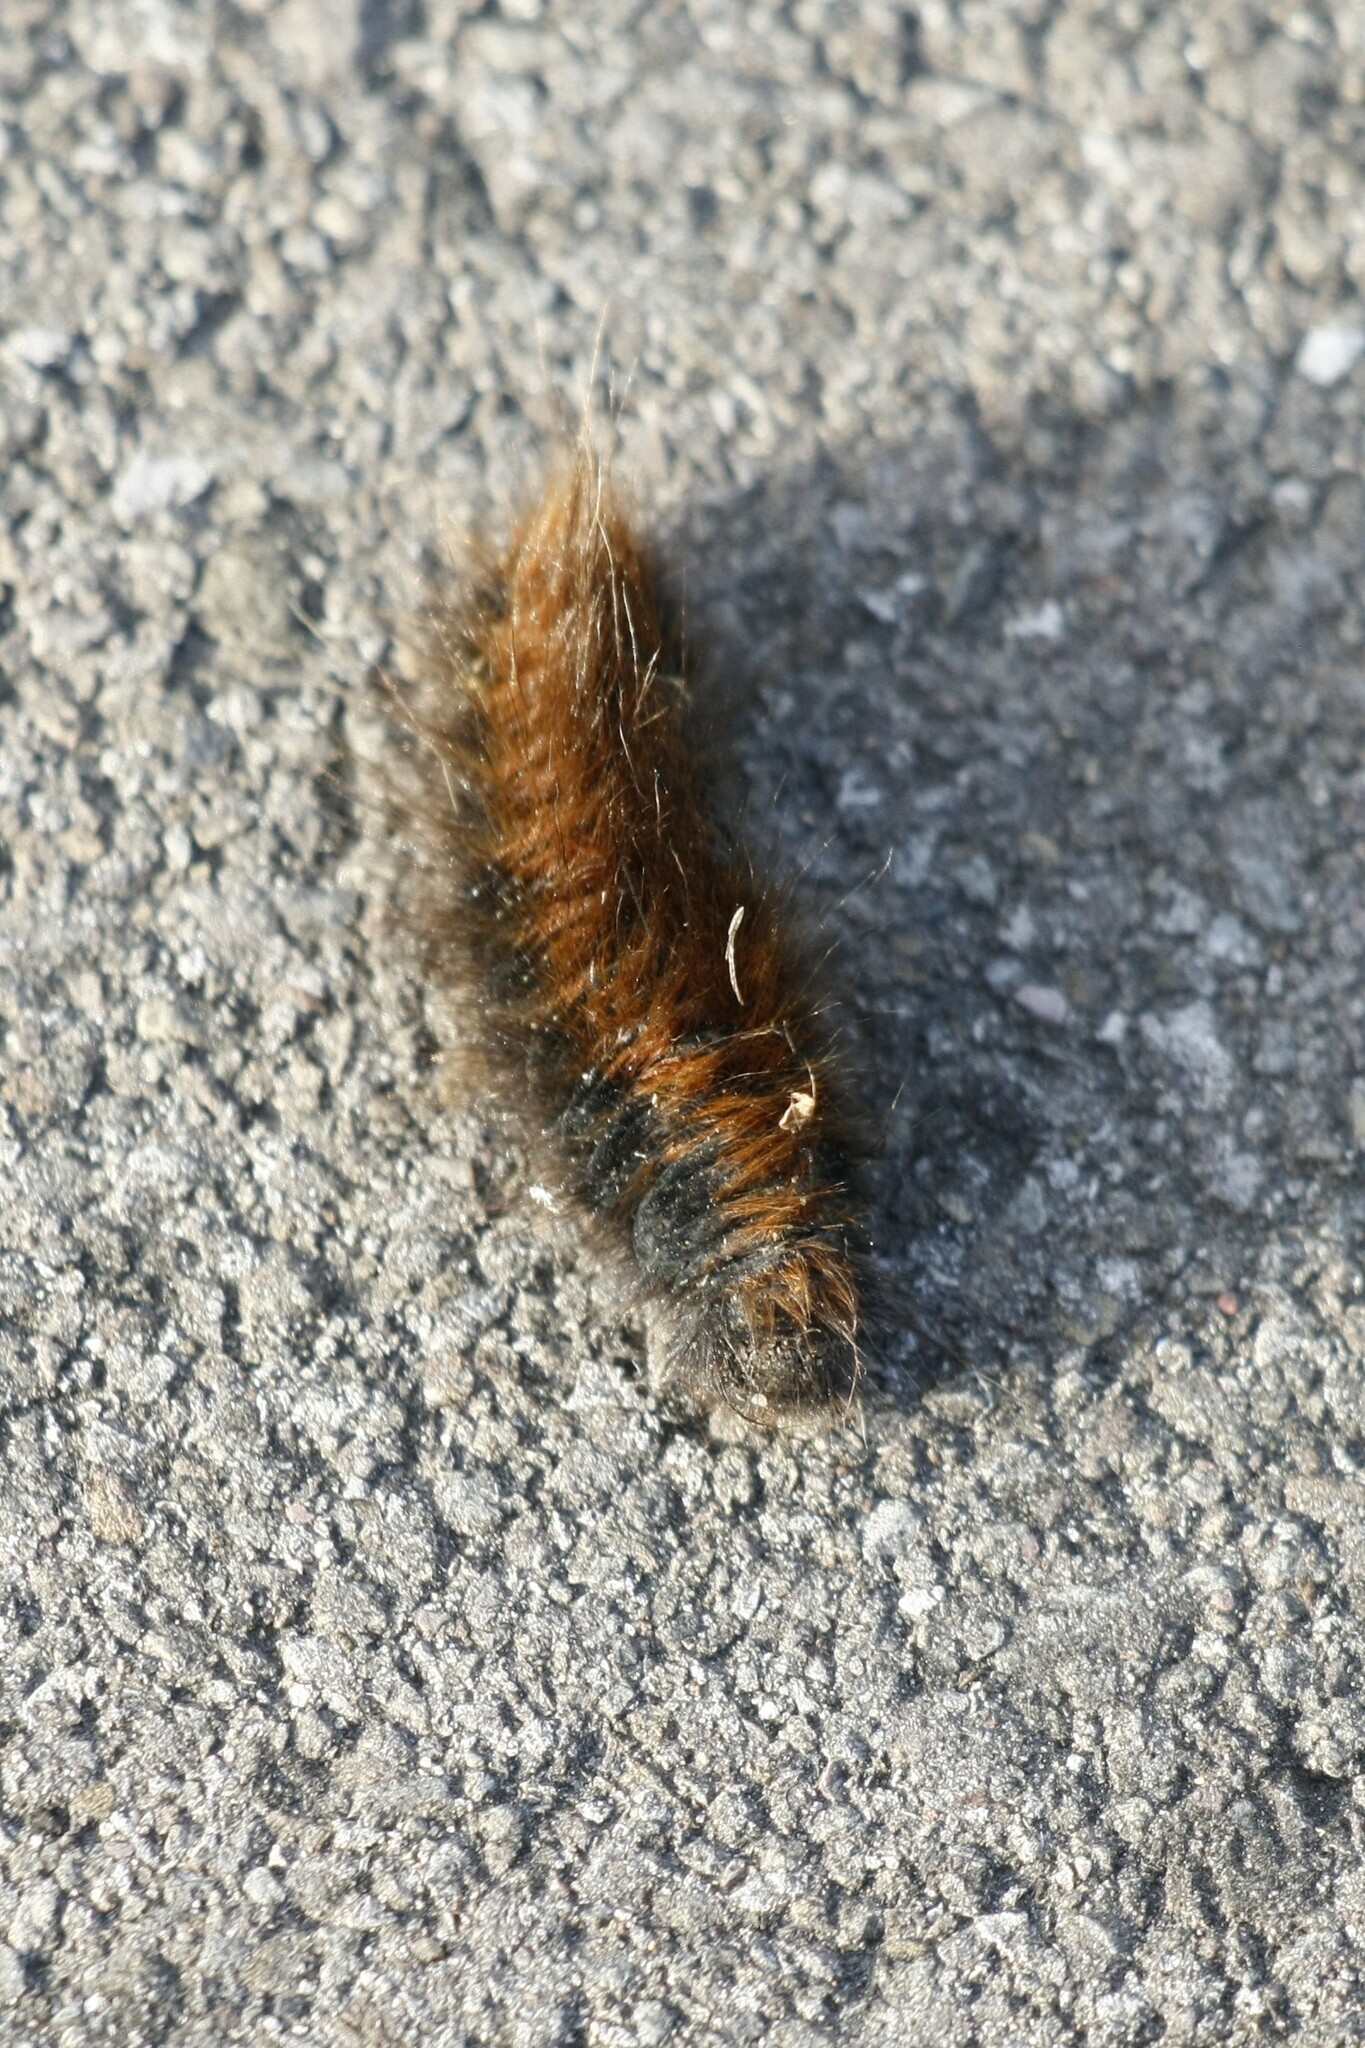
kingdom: Animalia
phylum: Arthropoda
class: Insecta
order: Lepidoptera
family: Lasiocampidae
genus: Macrothylacia
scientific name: Macrothylacia rubi
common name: Fox moth
